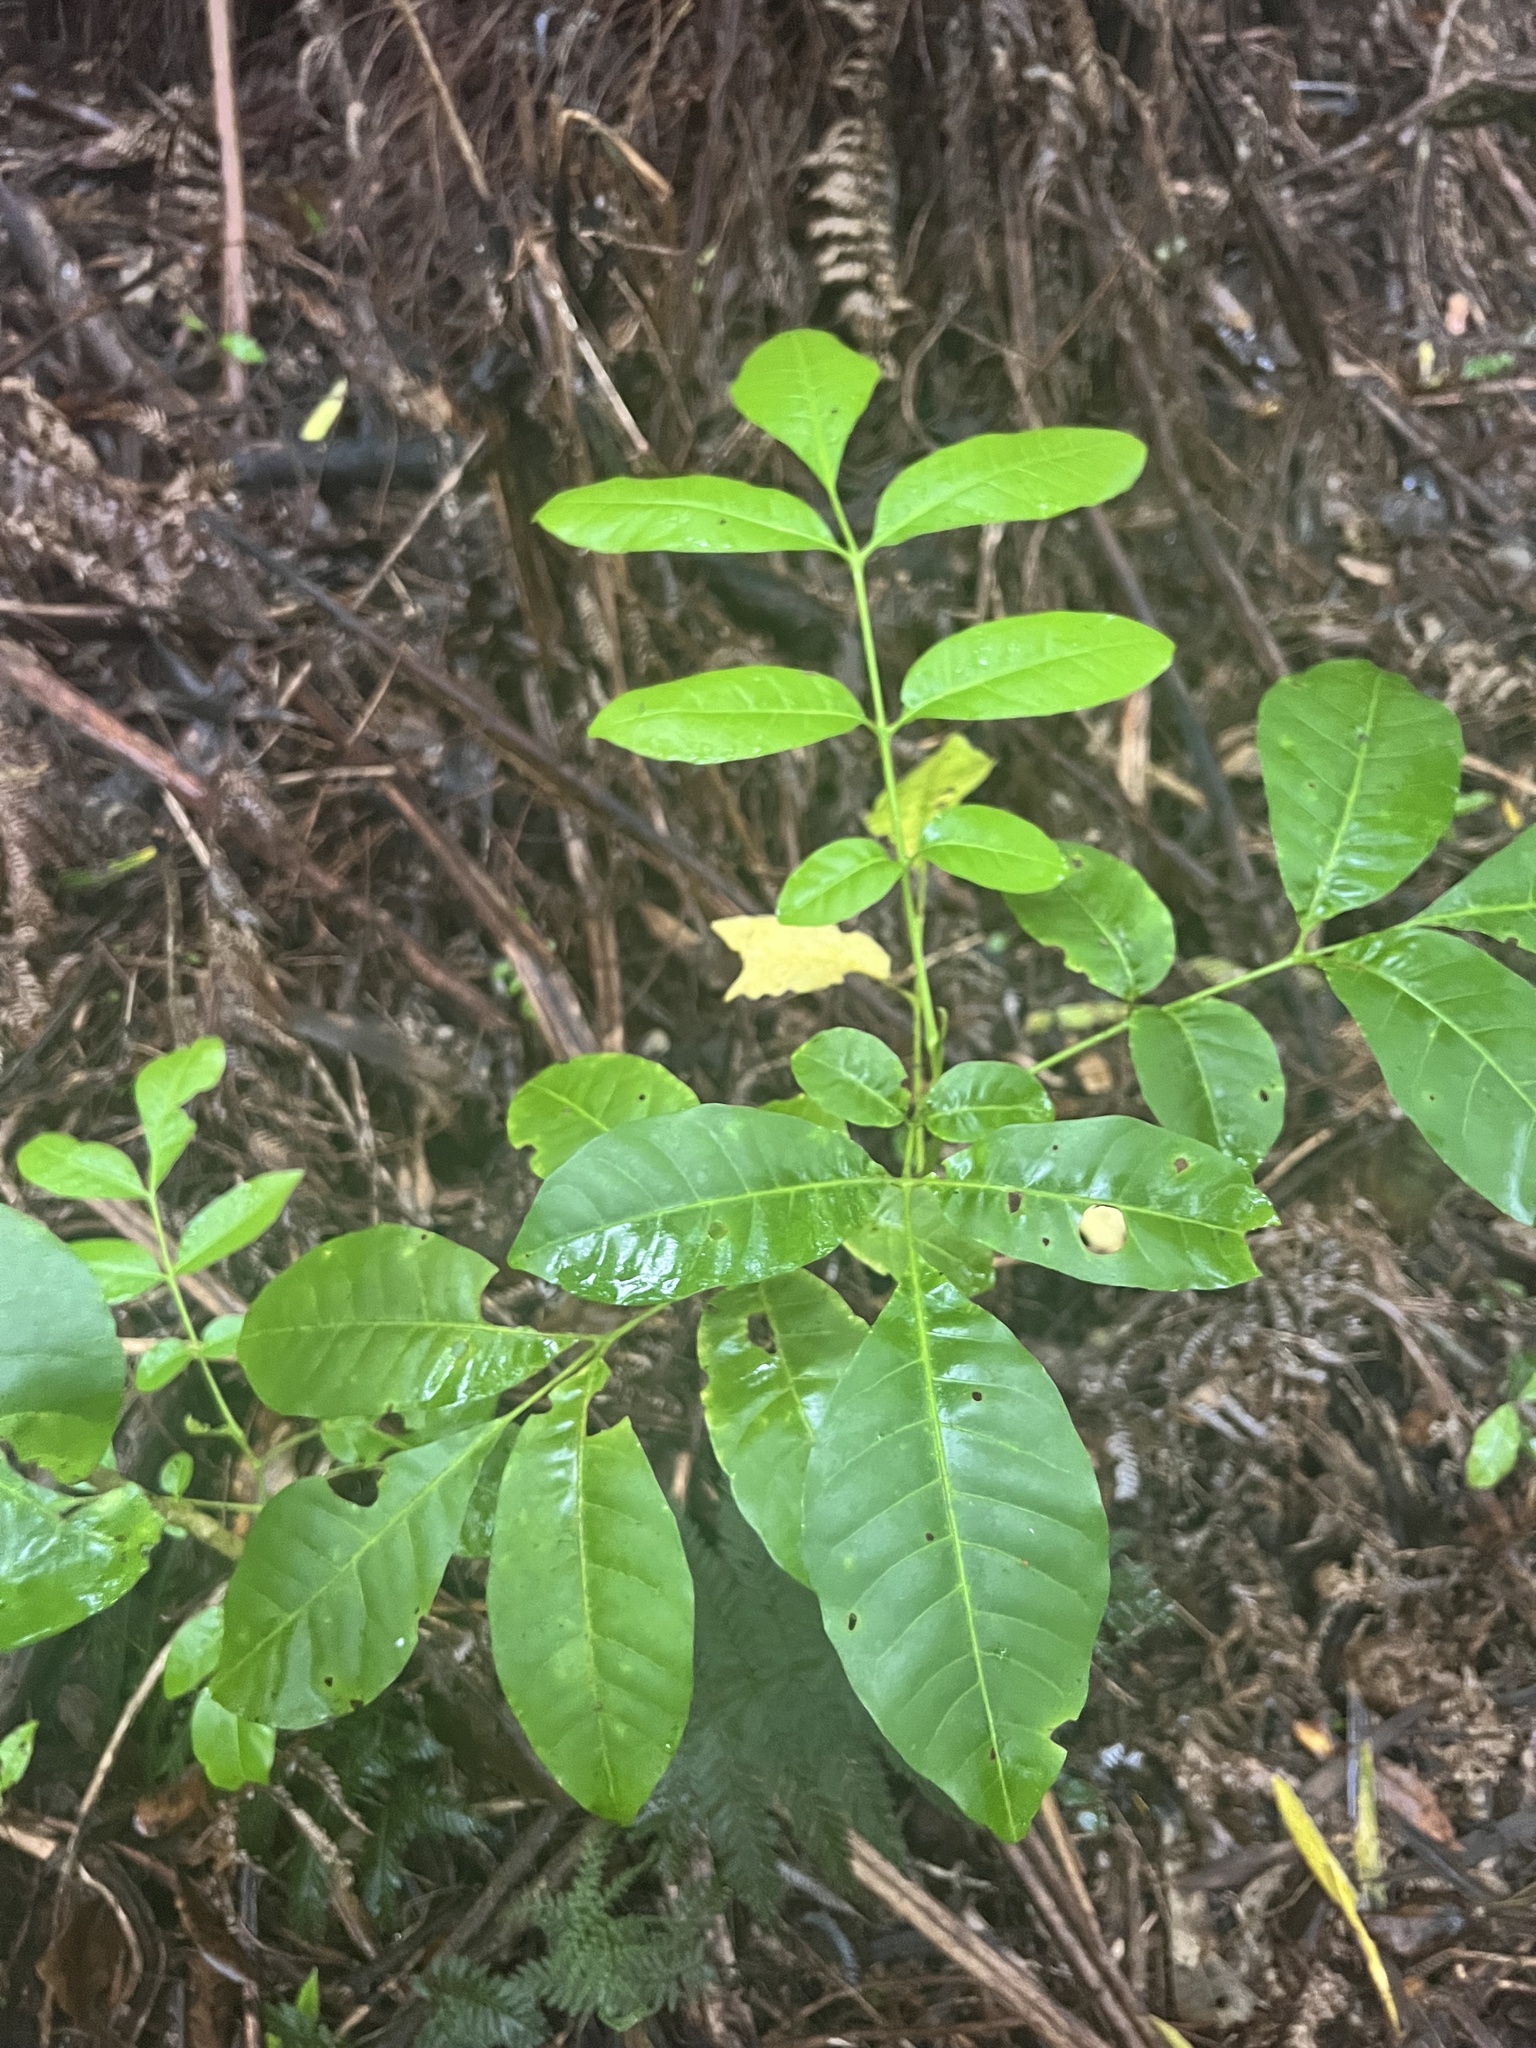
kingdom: Plantae
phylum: Tracheophyta
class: Magnoliopsida
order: Sapindales
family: Meliaceae
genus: Didymocheton
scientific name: Didymocheton spectabilis
